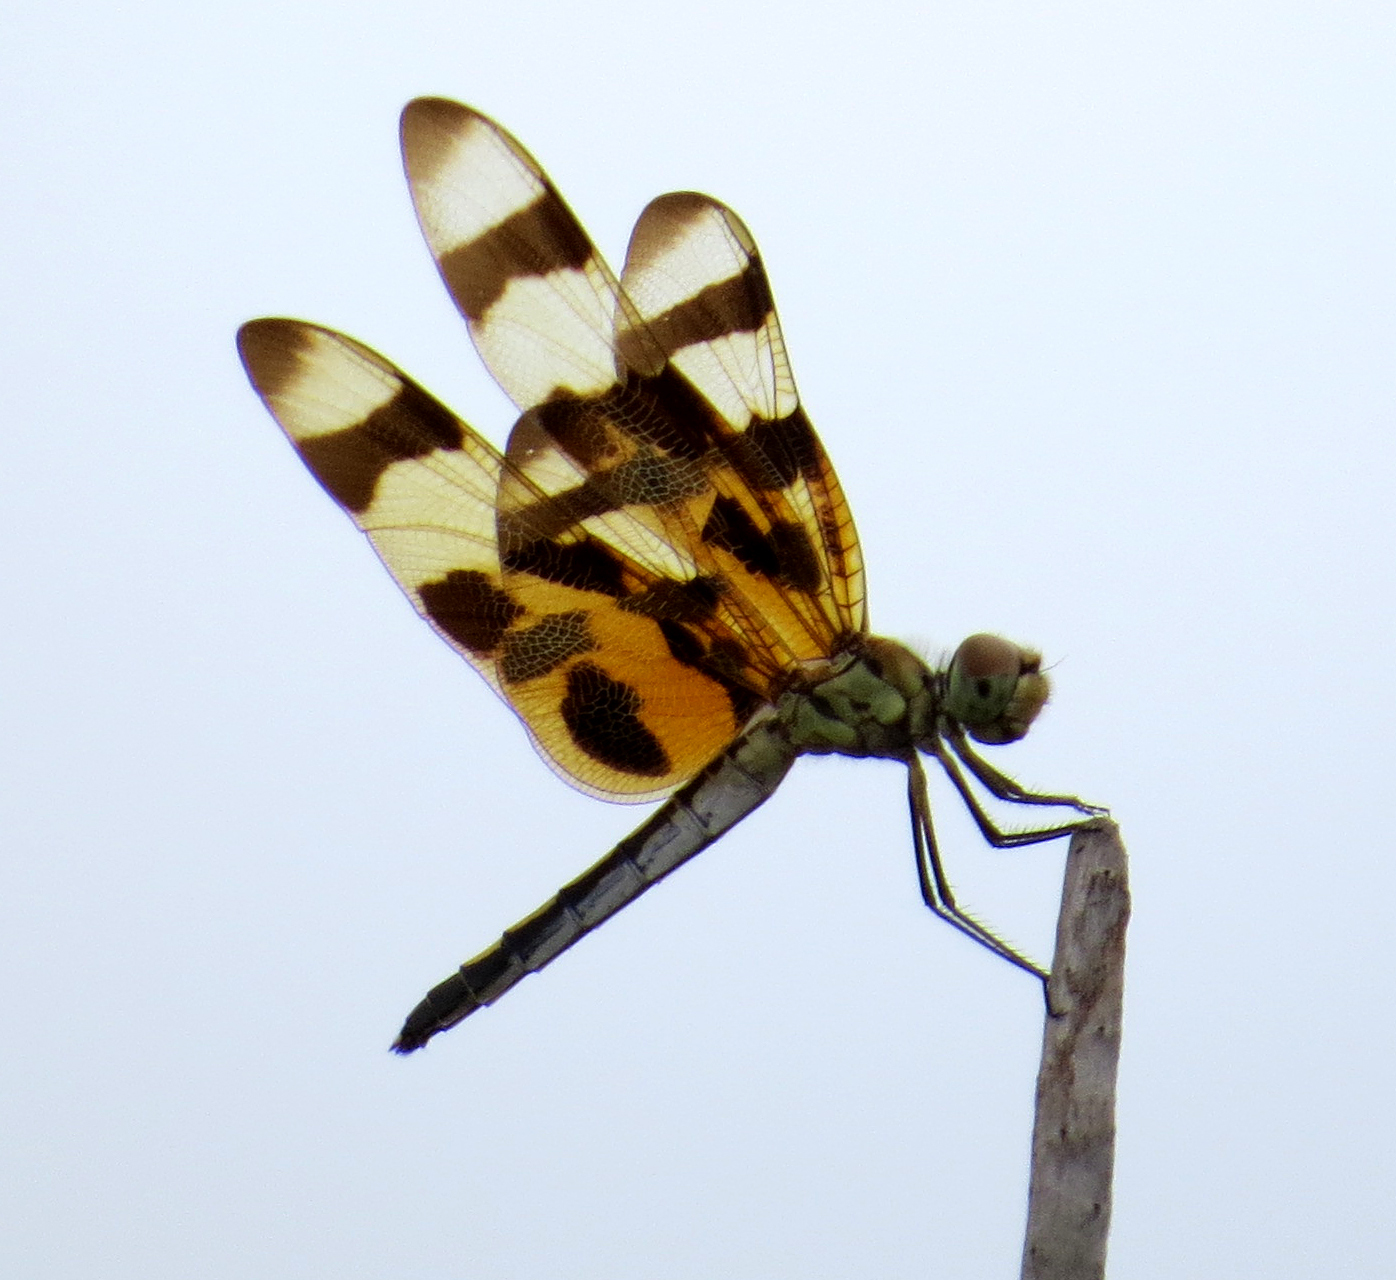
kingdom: Animalia
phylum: Arthropoda
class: Insecta
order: Odonata
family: Libellulidae
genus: Celithemis
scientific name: Celithemis eponina
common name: Halloween pennant
